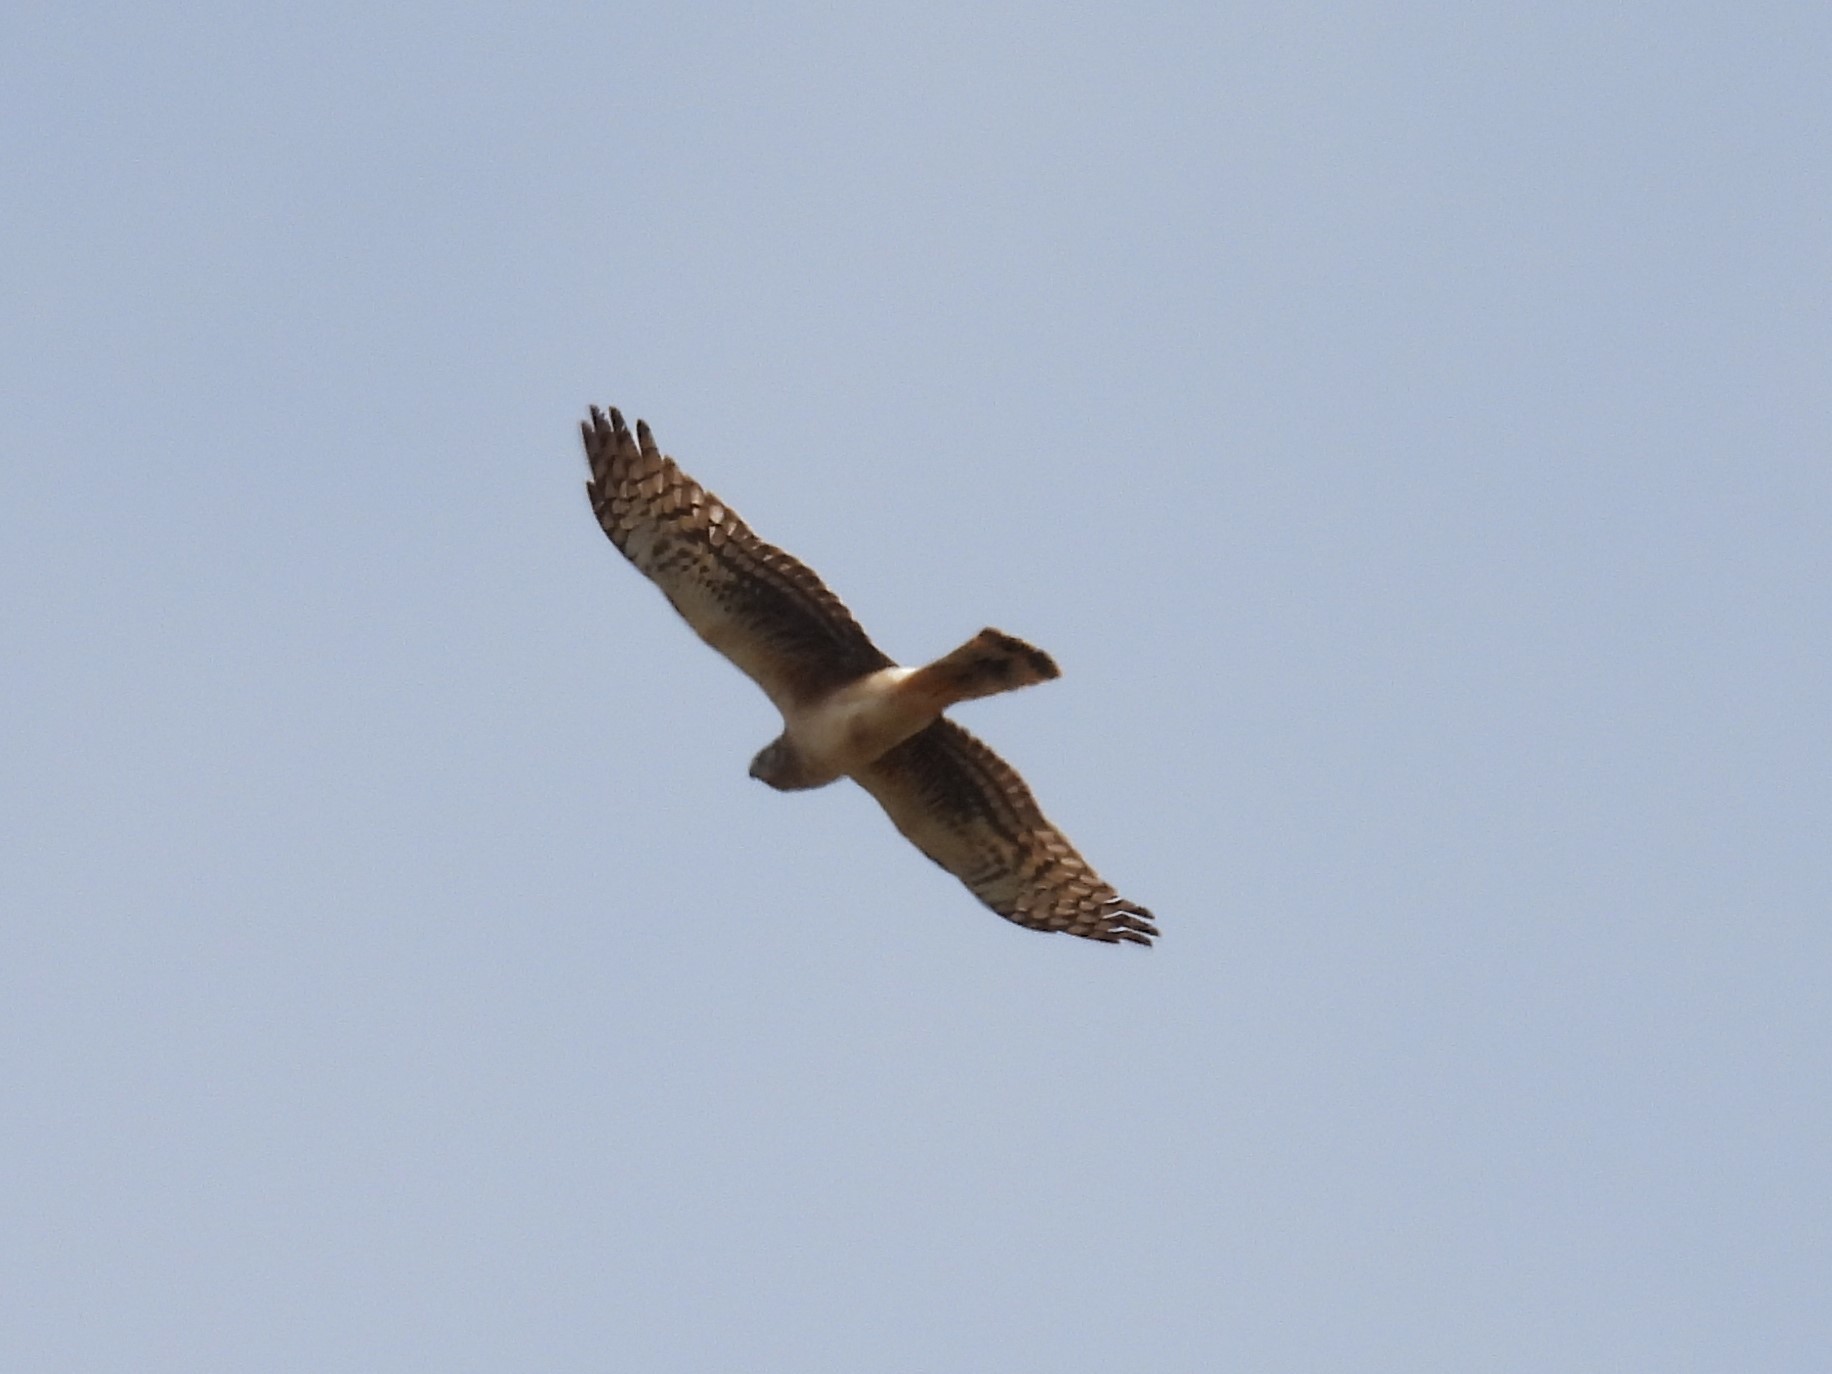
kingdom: Animalia
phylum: Chordata
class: Aves
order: Accipitriformes
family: Accipitridae
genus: Circus
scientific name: Circus cyaneus
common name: Hen harrier
